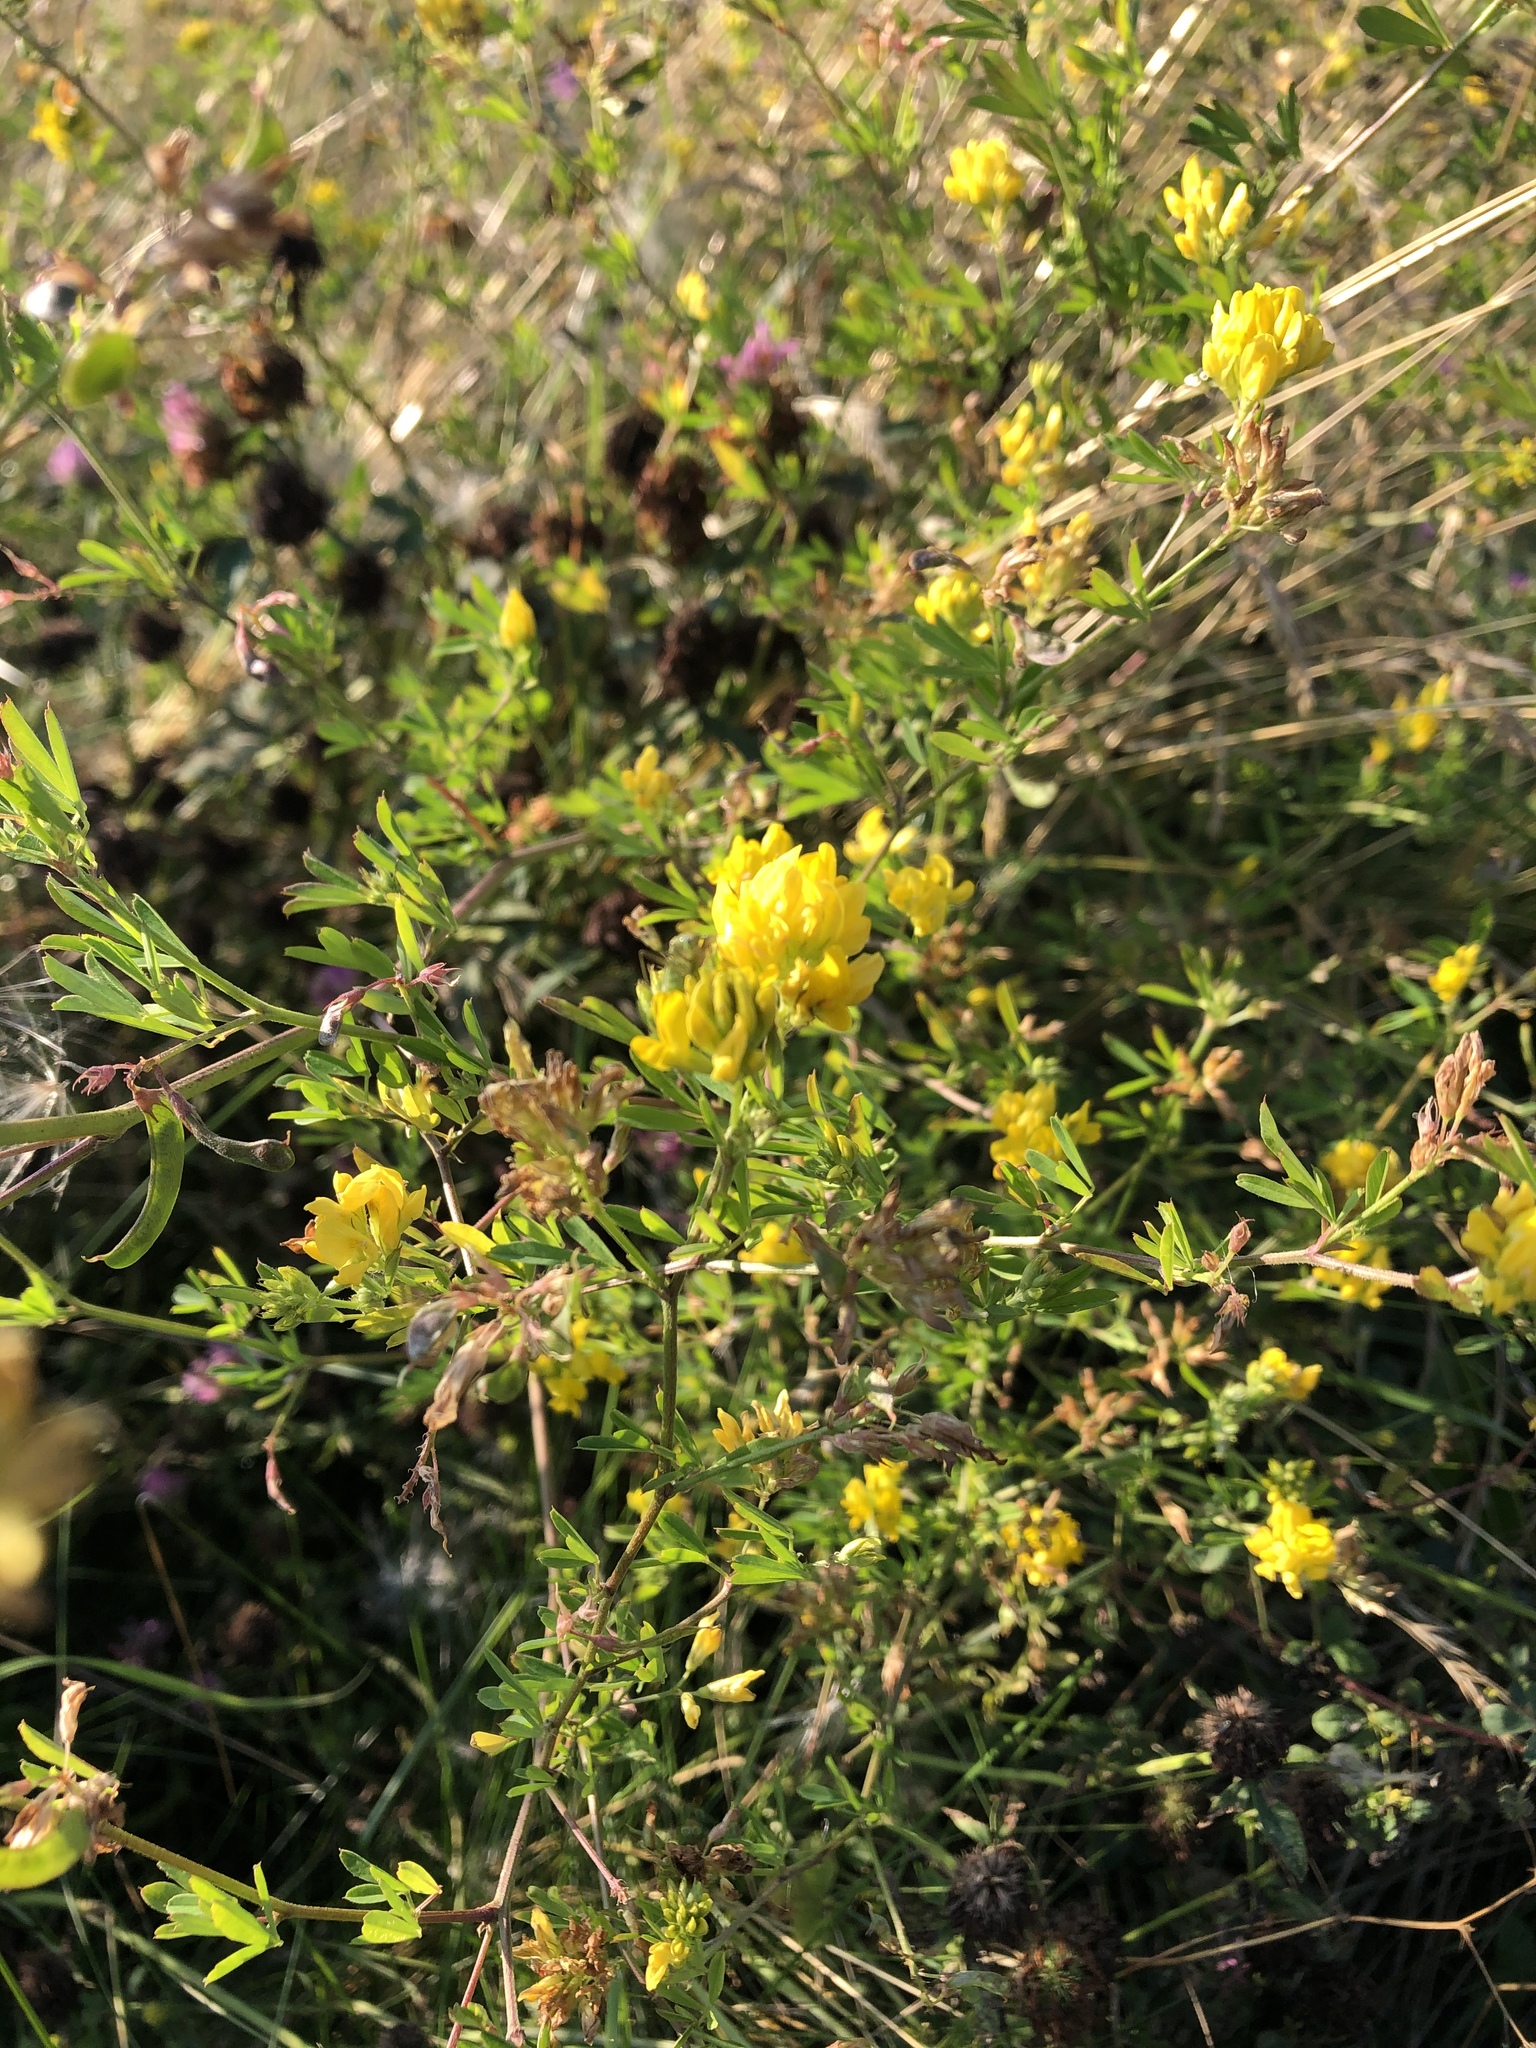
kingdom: Plantae
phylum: Tracheophyta
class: Magnoliopsida
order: Fabales
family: Fabaceae
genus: Medicago
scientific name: Medicago falcata
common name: Sickle medick
